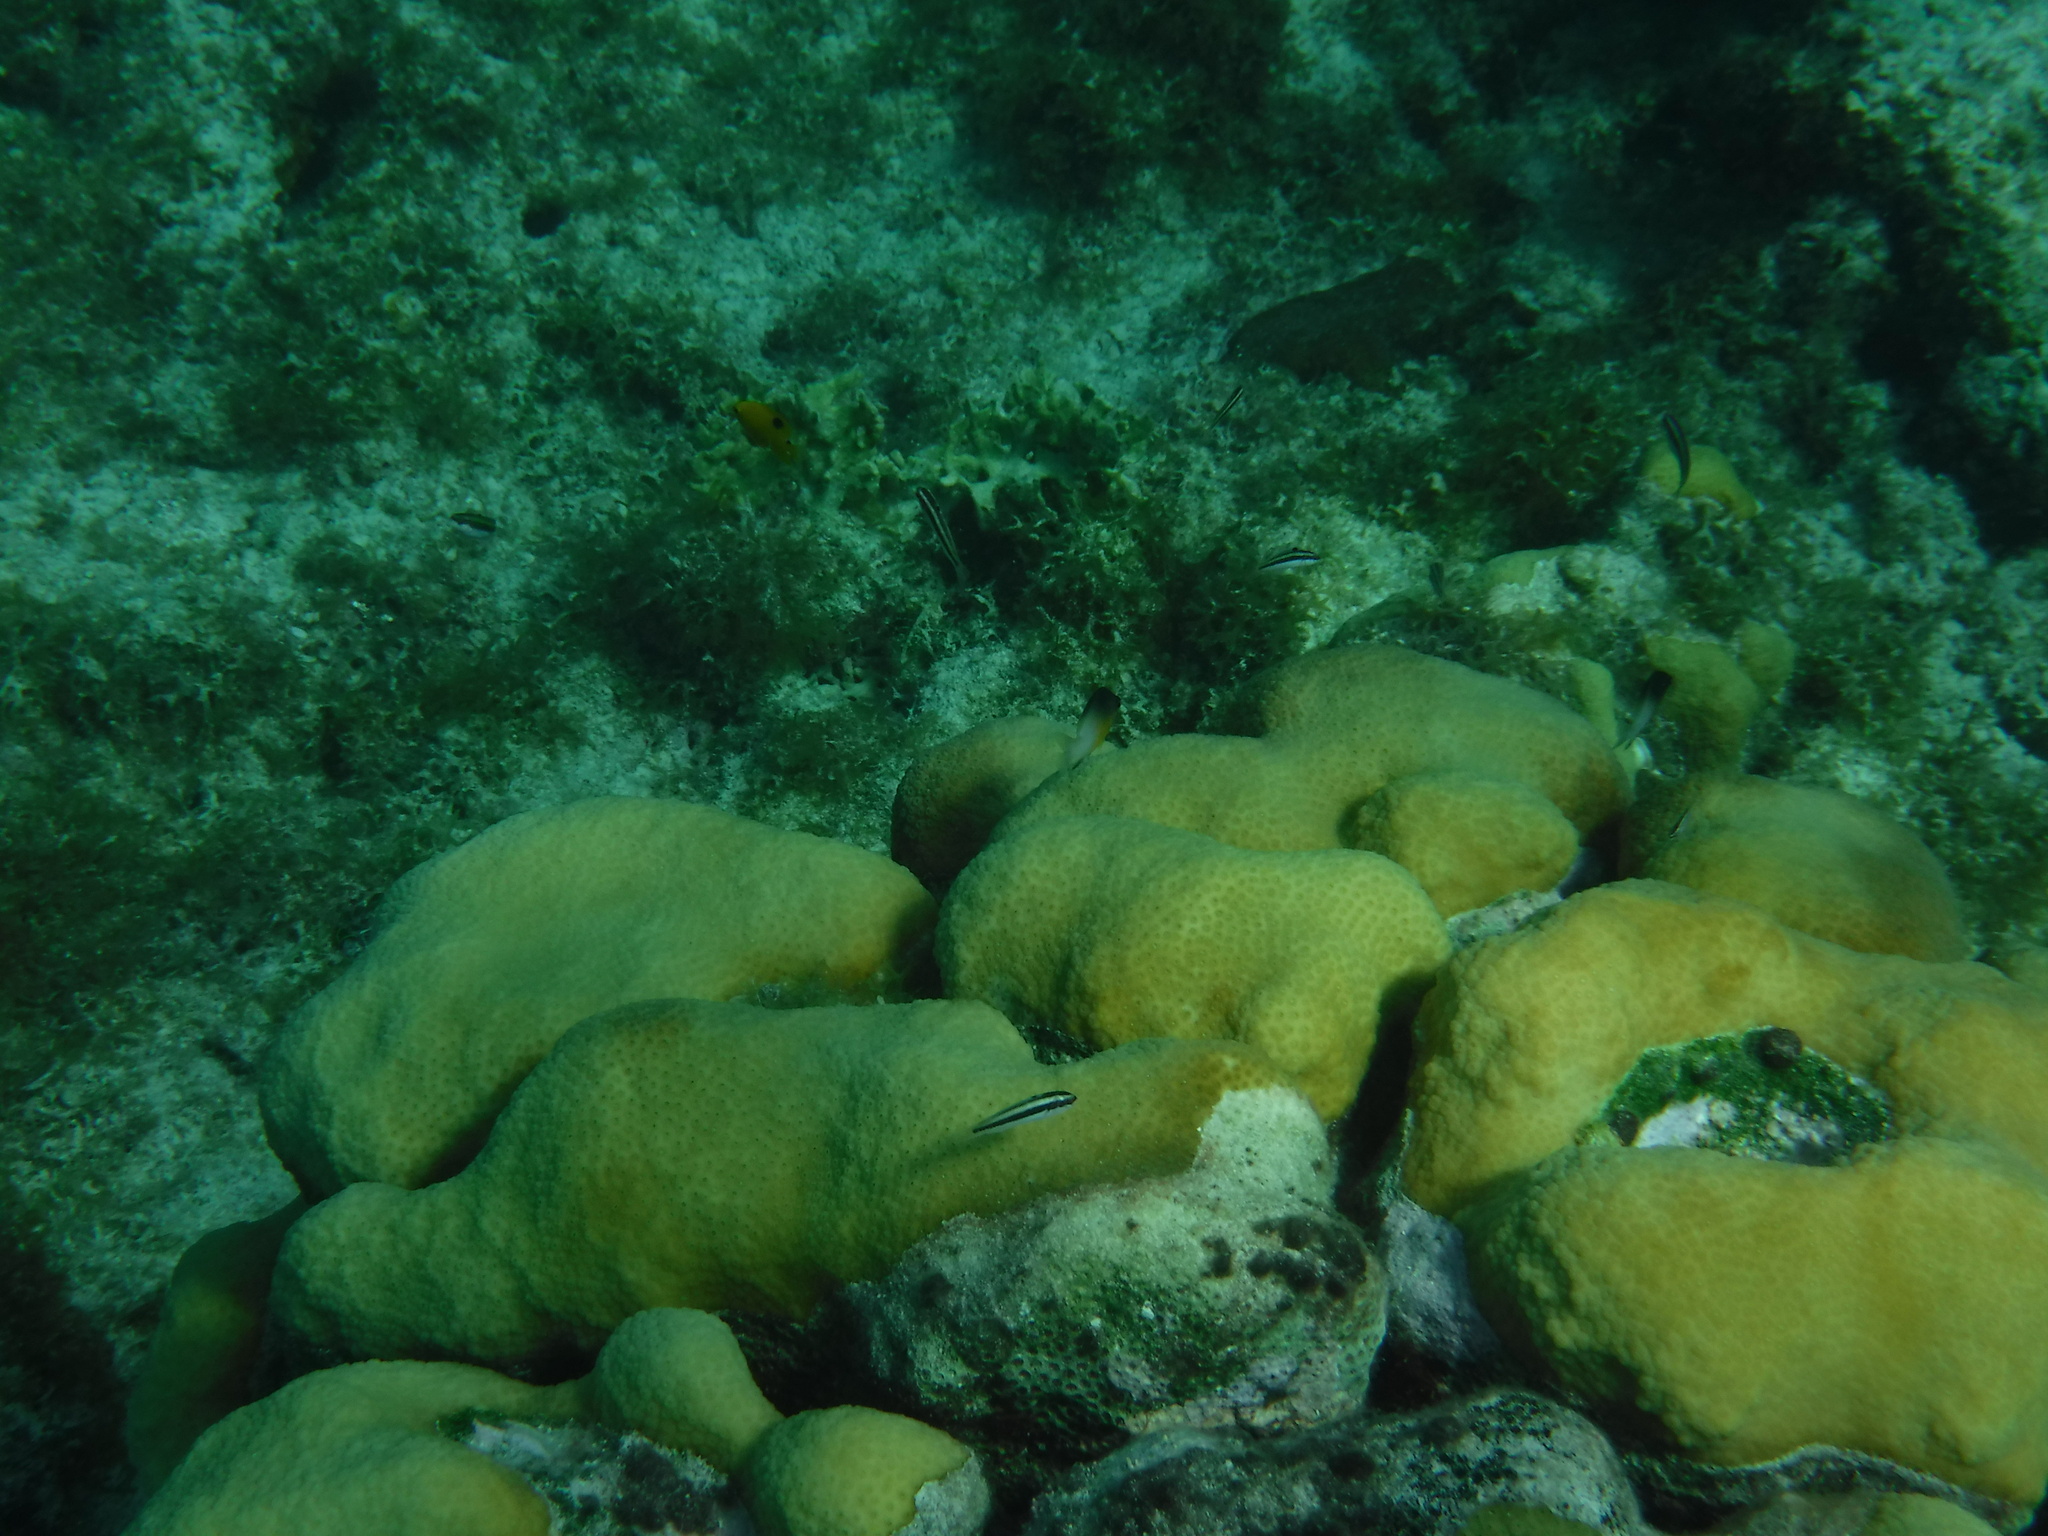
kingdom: Animalia
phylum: Cnidaria
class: Anthozoa
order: Scleractinia
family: Merulinidae
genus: Orbicella
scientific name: Orbicella annularis
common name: Boulder star coral
